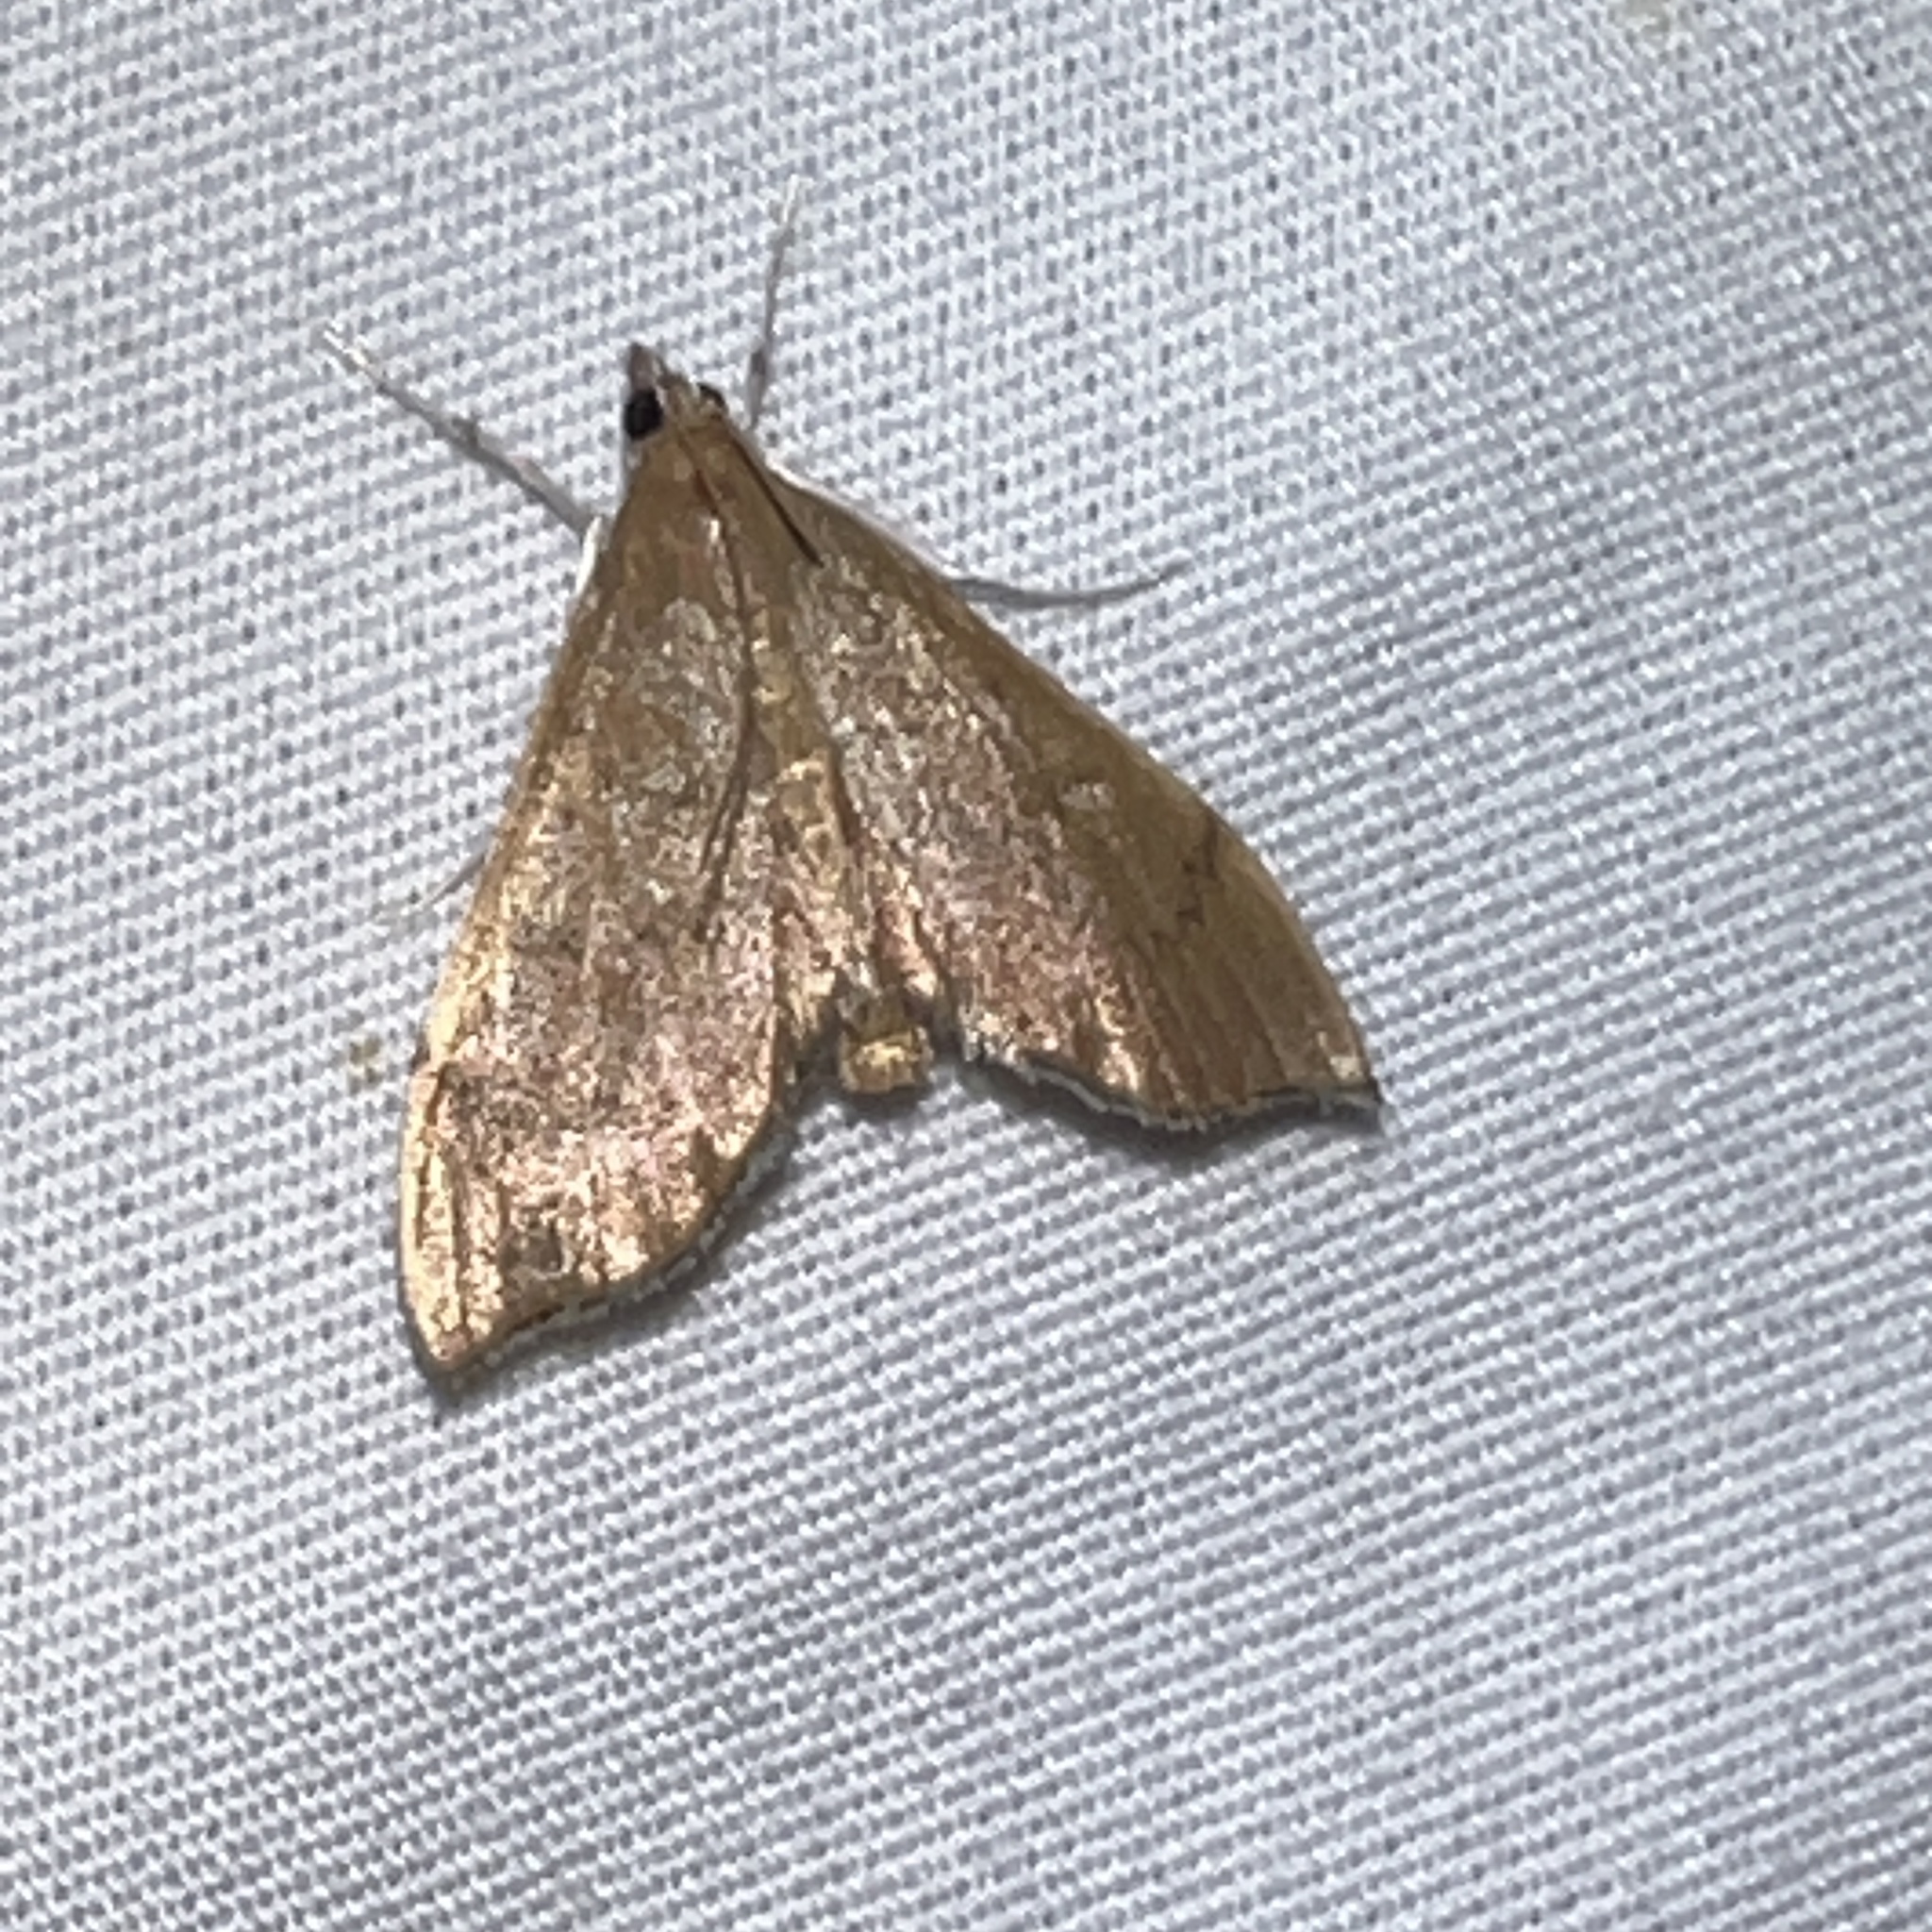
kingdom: Animalia
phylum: Arthropoda
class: Insecta
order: Lepidoptera
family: Crambidae
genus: Sericoplaga
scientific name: Sericoplaga externalis
